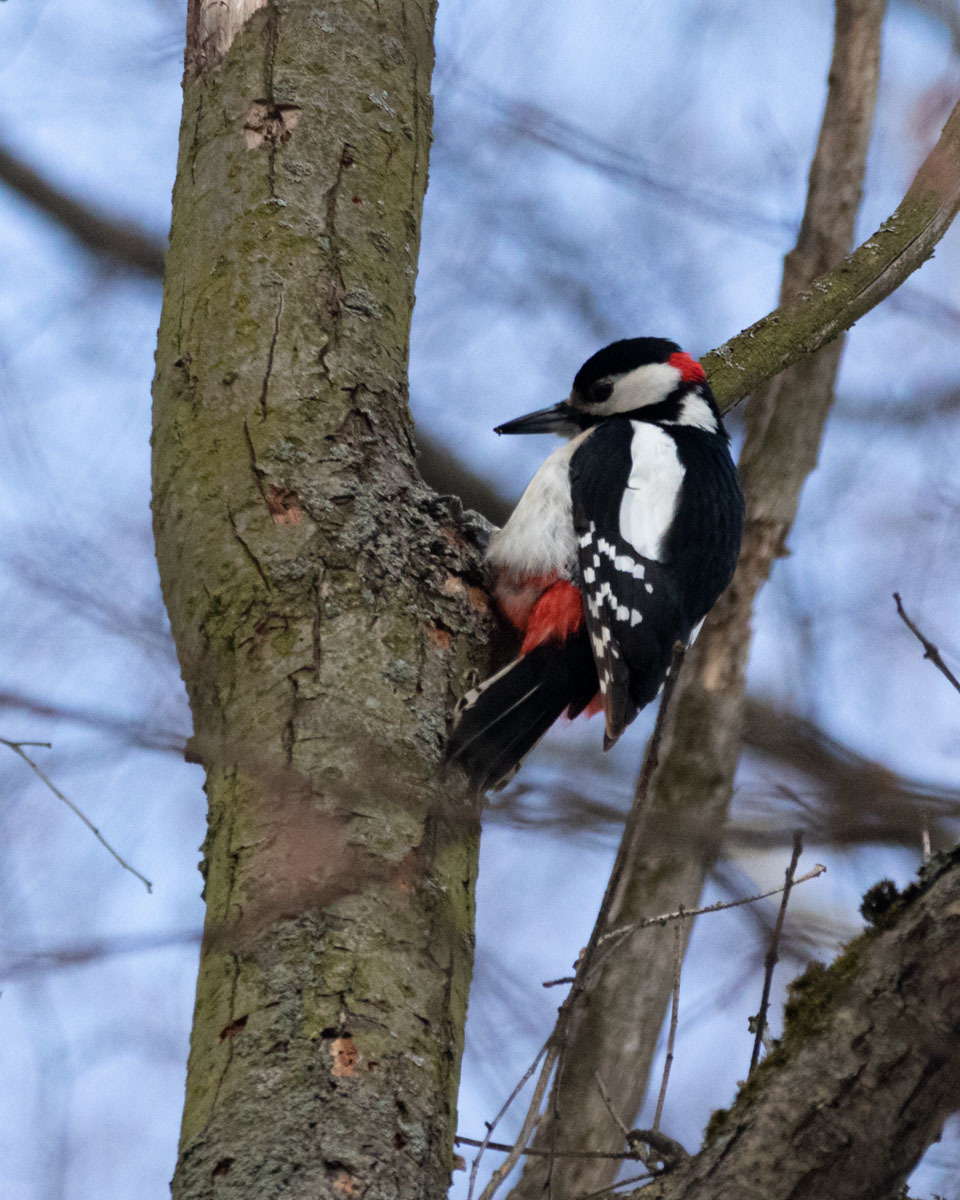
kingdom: Animalia
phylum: Chordata
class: Aves
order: Piciformes
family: Picidae
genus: Dendrocopos
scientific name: Dendrocopos major
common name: Great spotted woodpecker
